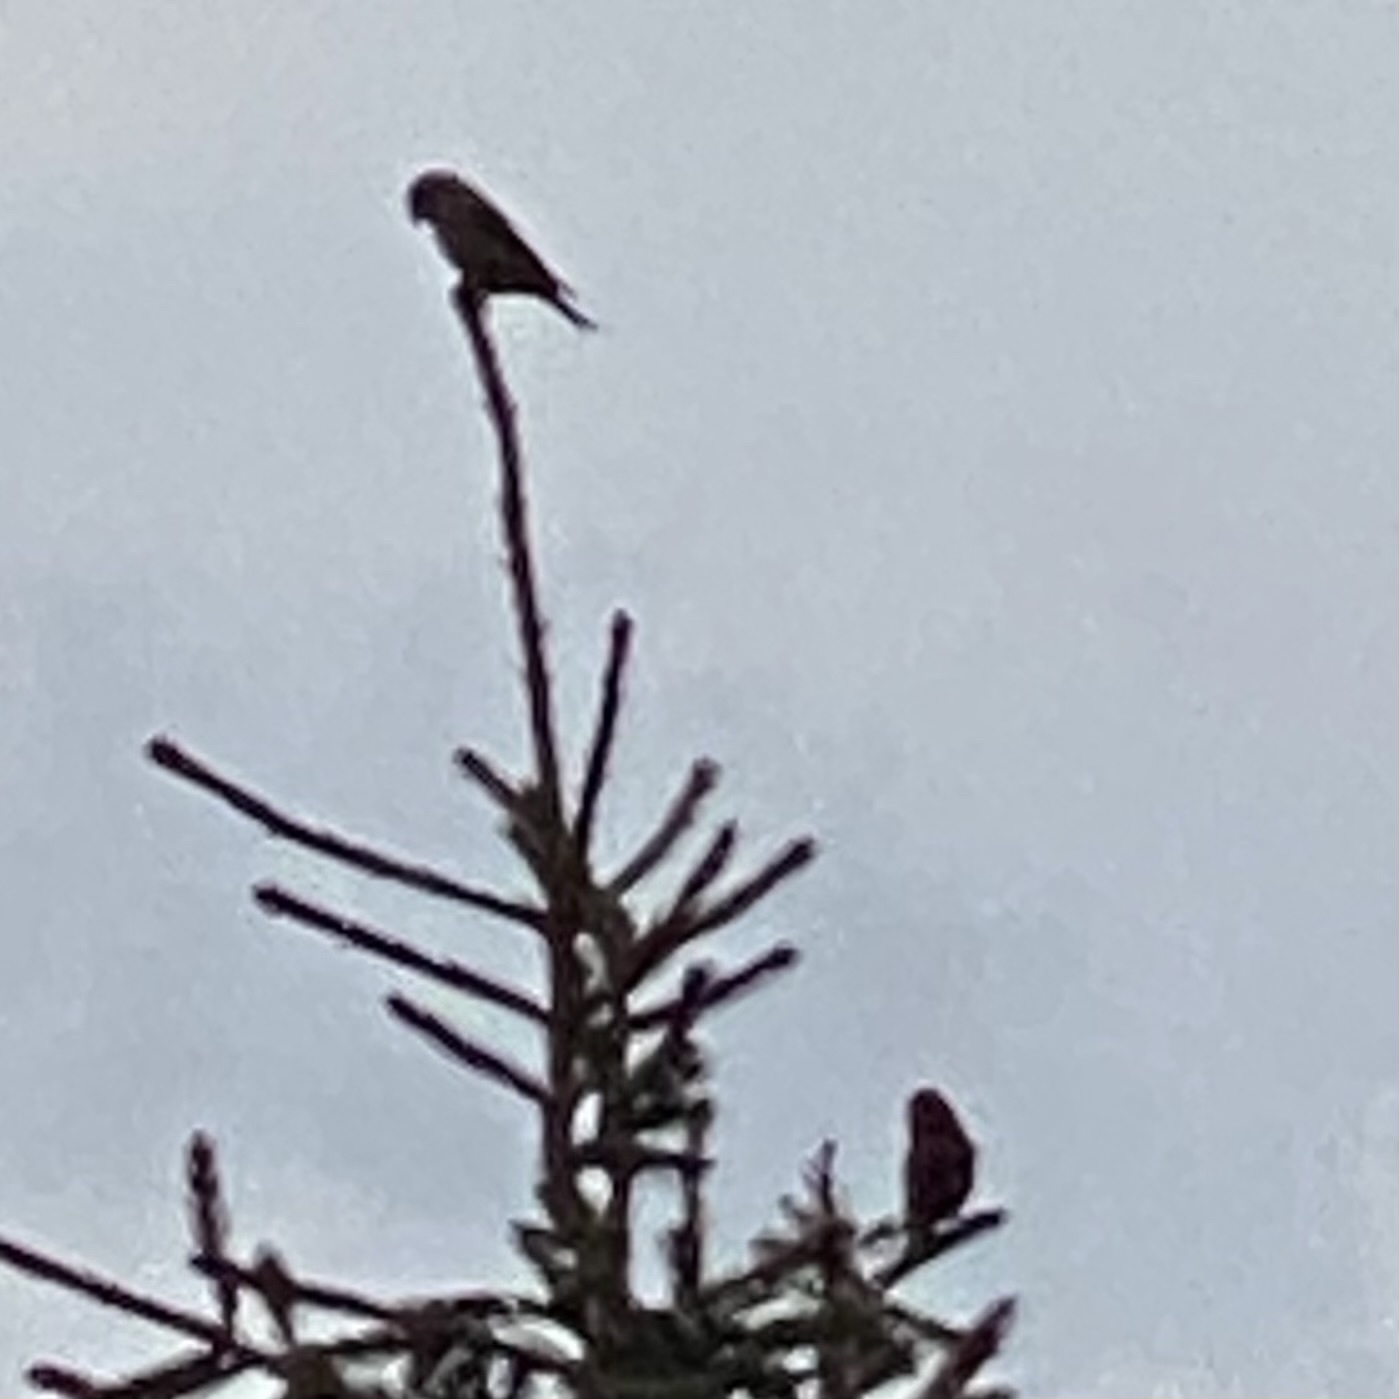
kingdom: Animalia
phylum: Chordata
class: Aves
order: Passeriformes
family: Fringillidae
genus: Loxia
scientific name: Loxia curvirostra
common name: Red crossbill
